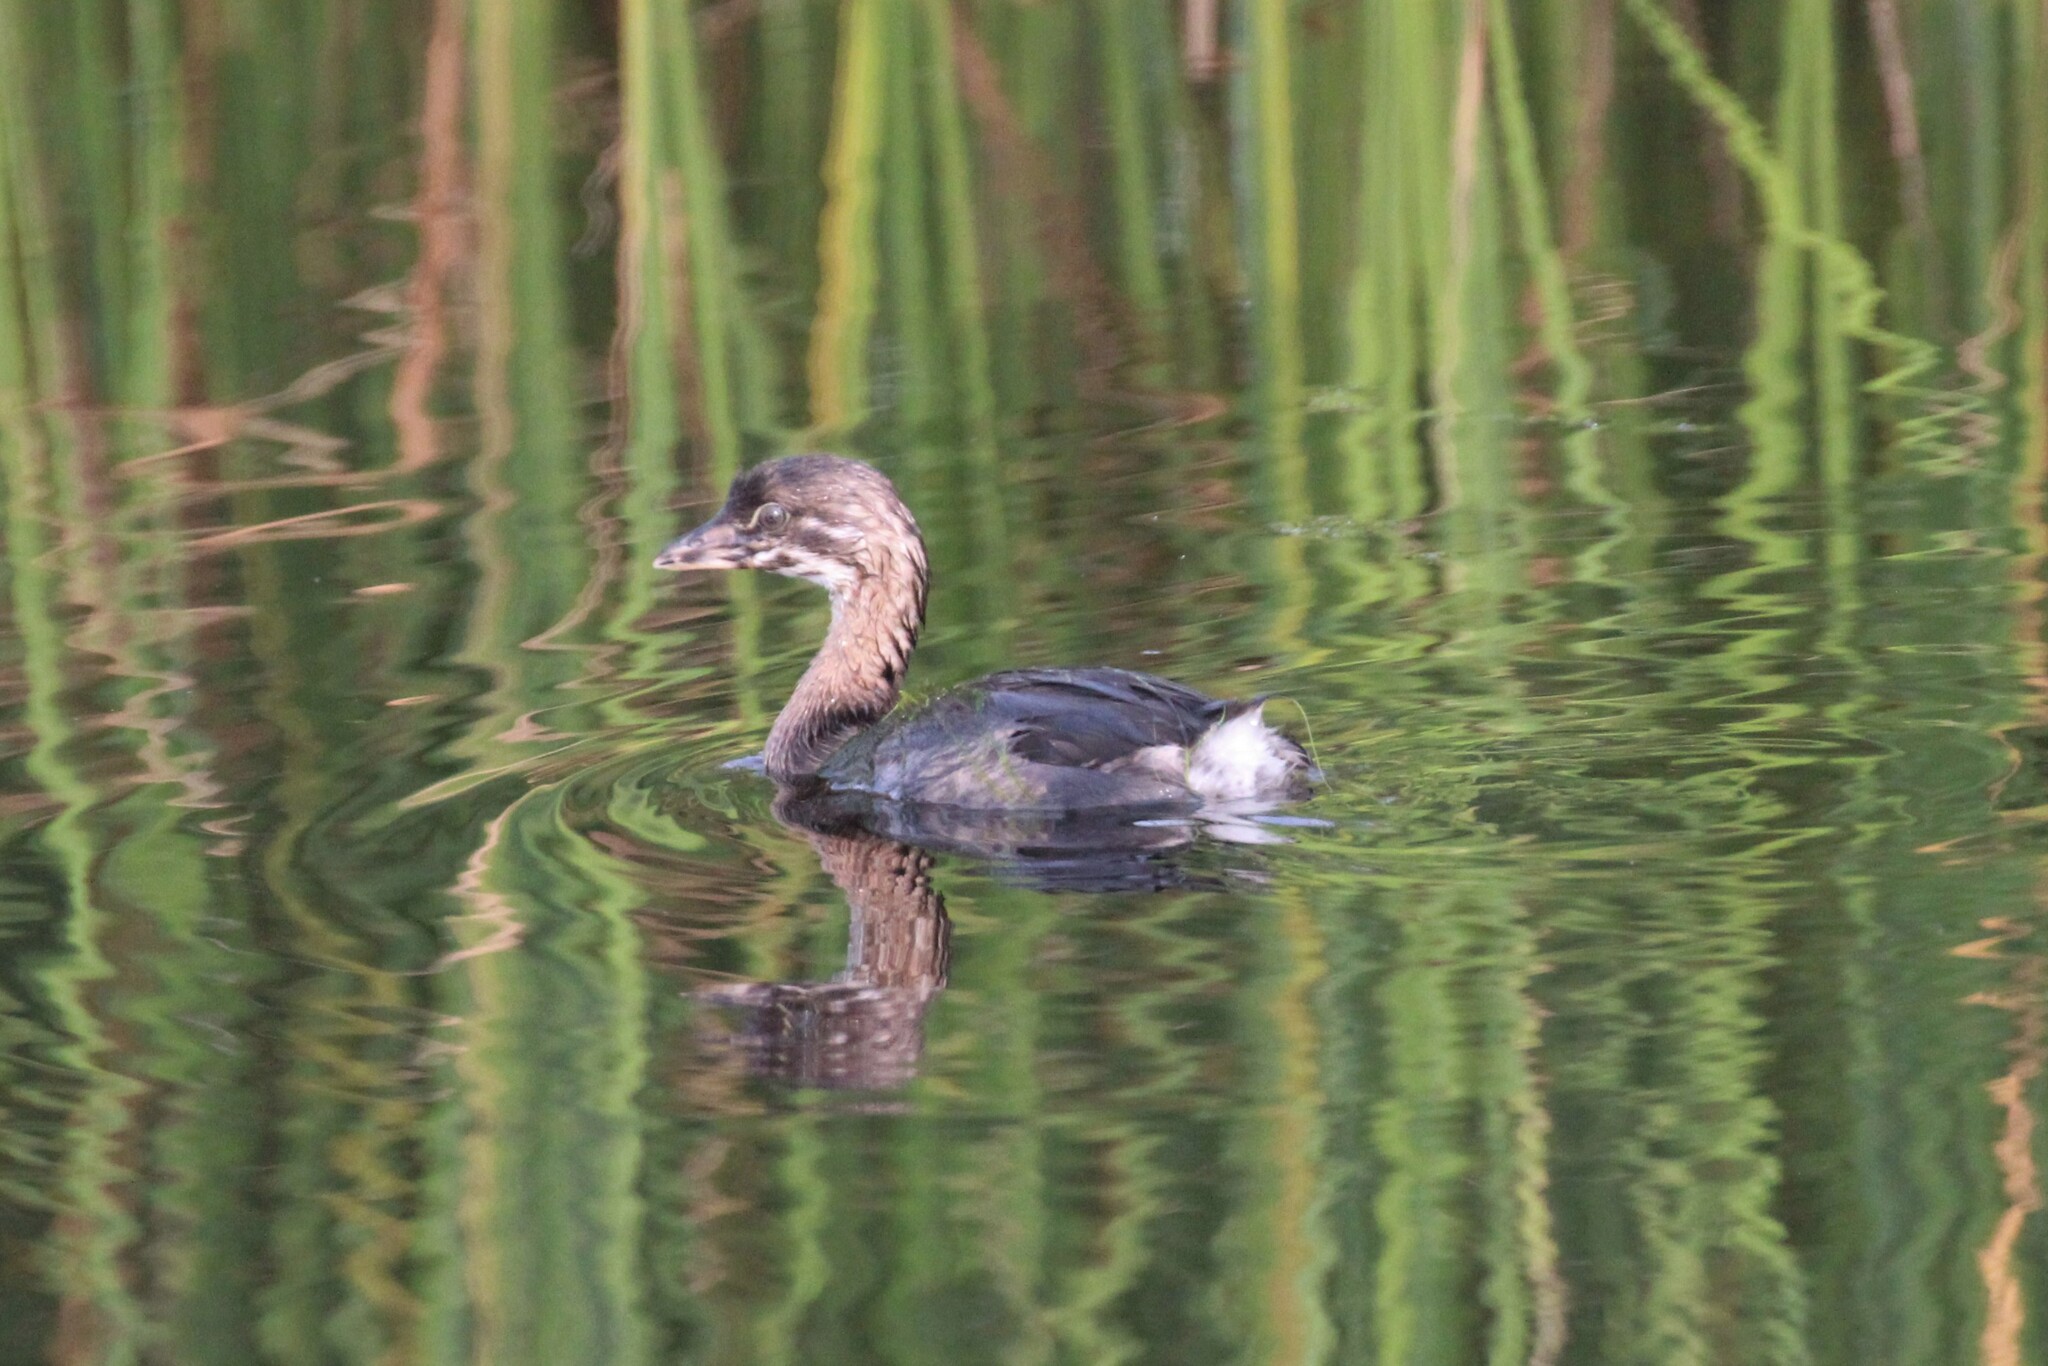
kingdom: Animalia
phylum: Chordata
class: Aves
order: Podicipediformes
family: Podicipedidae
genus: Podilymbus
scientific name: Podilymbus podiceps
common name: Pied-billed grebe
